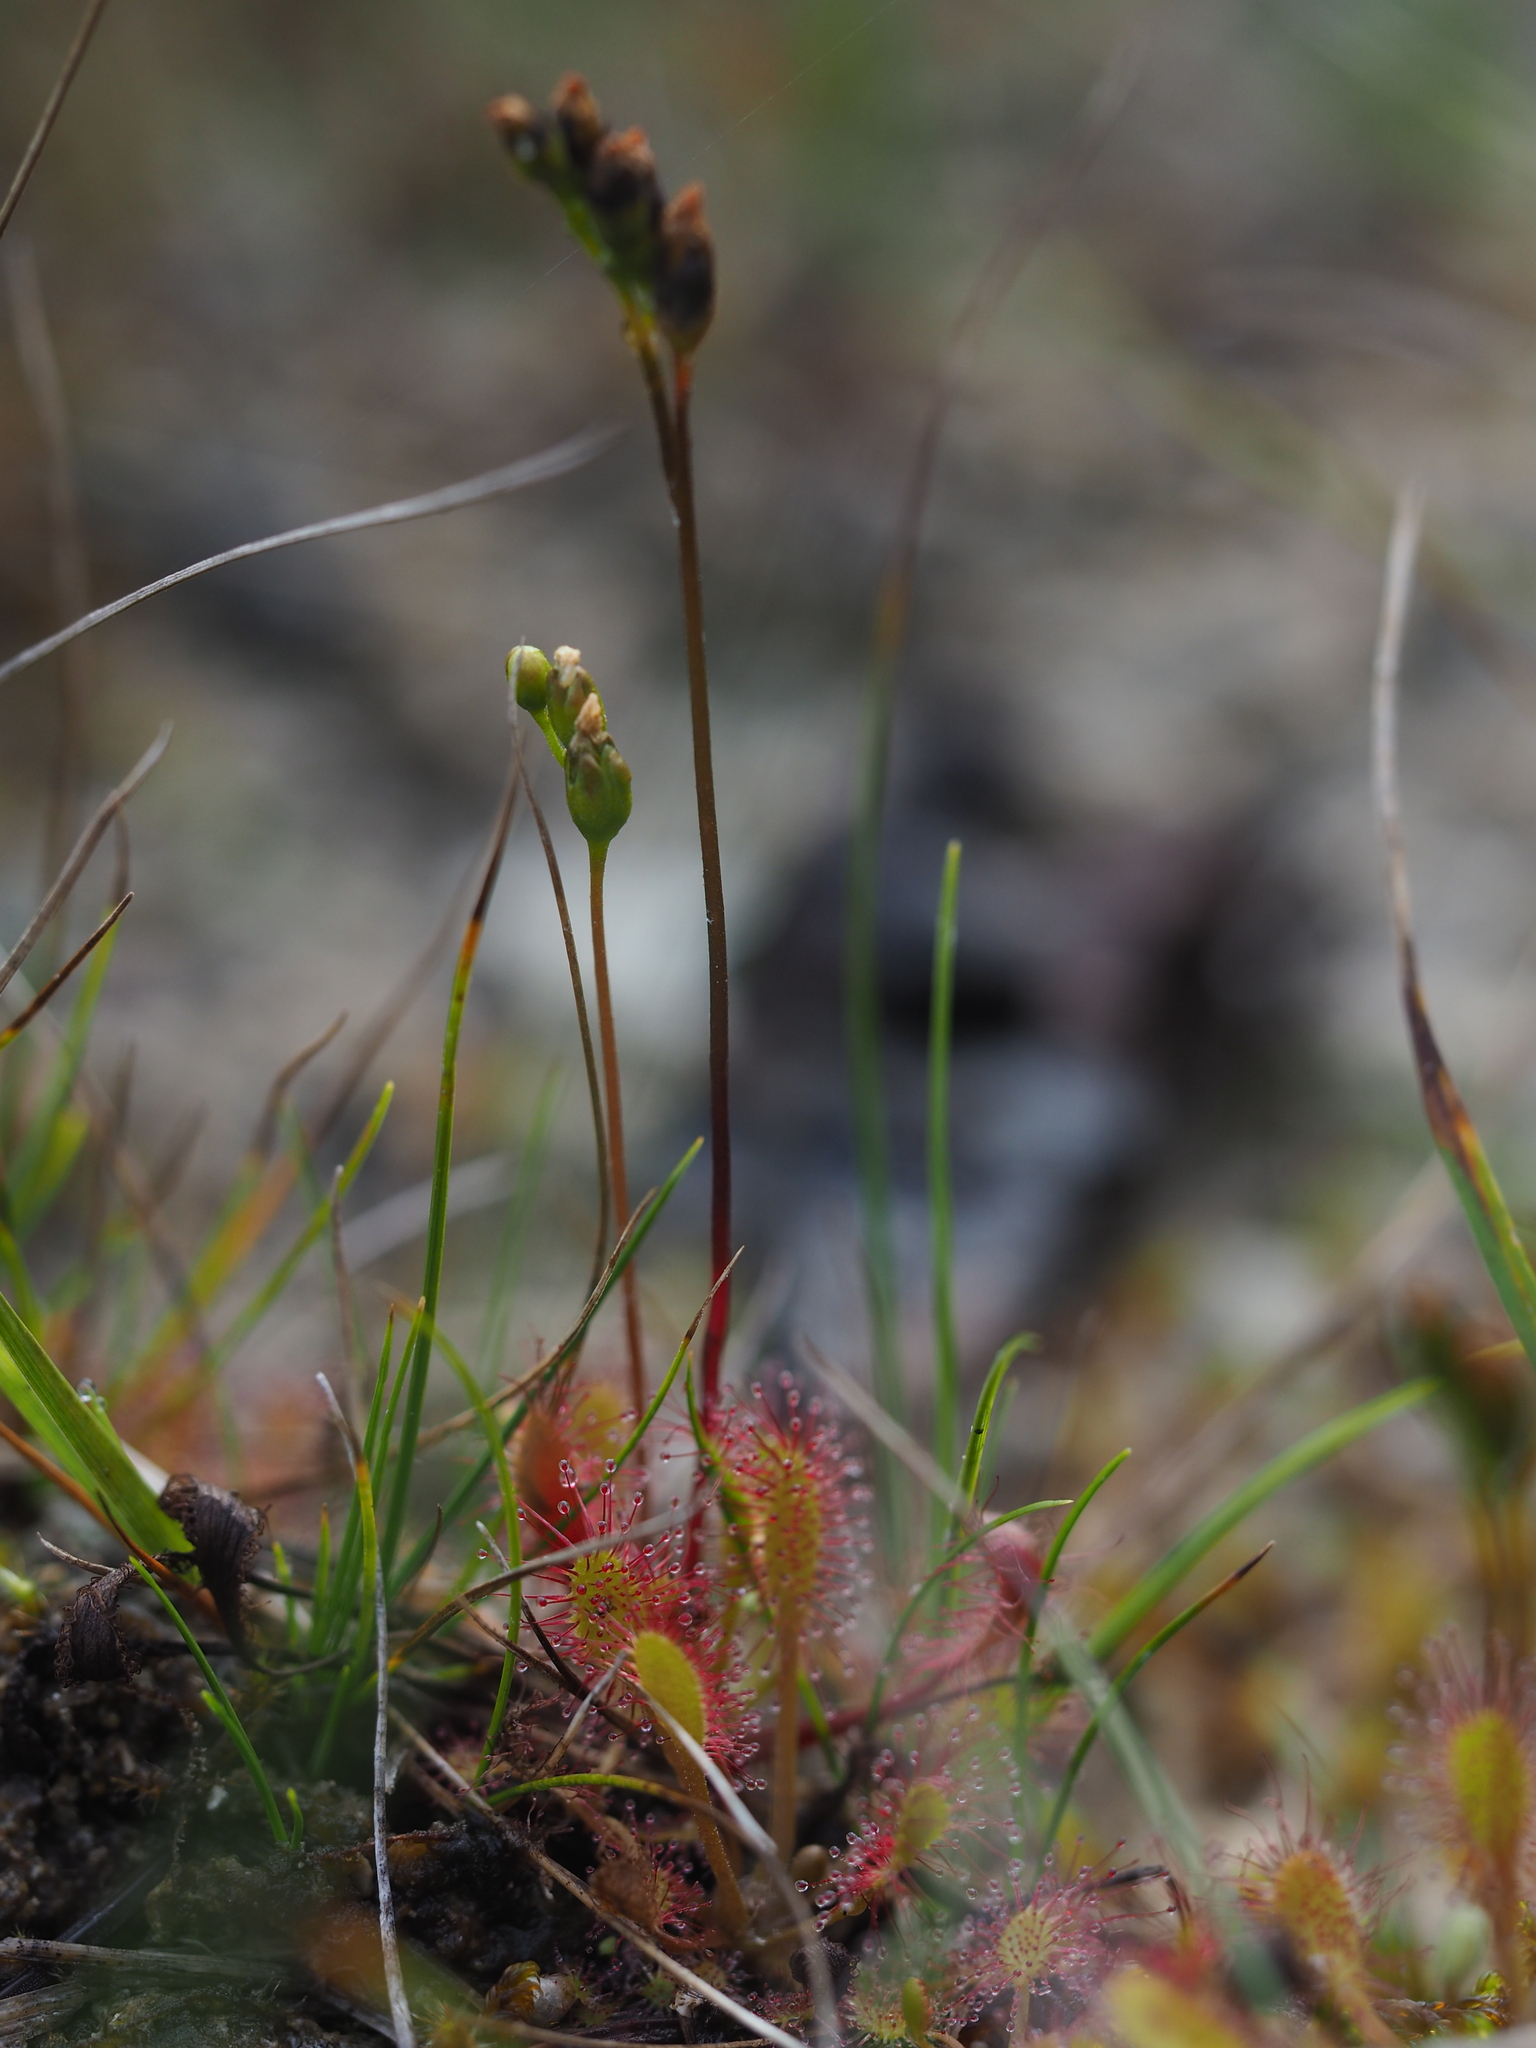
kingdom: Plantae
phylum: Tracheophyta
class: Magnoliopsida
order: Caryophyllales
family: Droseraceae
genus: Drosera
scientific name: Drosera anglica
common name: Great sundew
